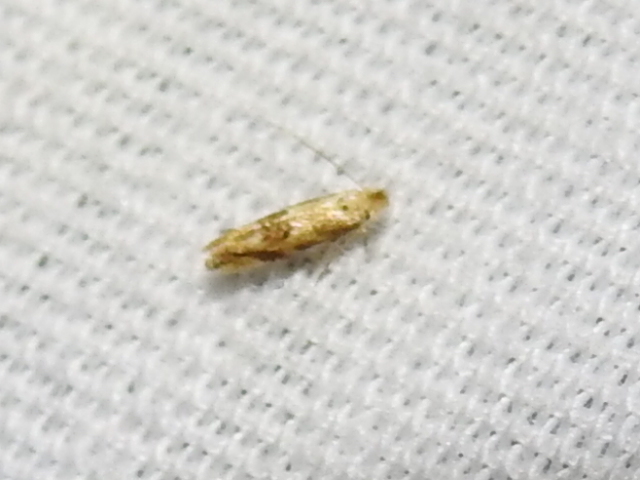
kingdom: Animalia
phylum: Arthropoda
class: Insecta
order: Lepidoptera
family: Bucculatricidae
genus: Bucculatrix
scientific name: Bucculatrix coronatella
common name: Crowned bucculatrix moth
